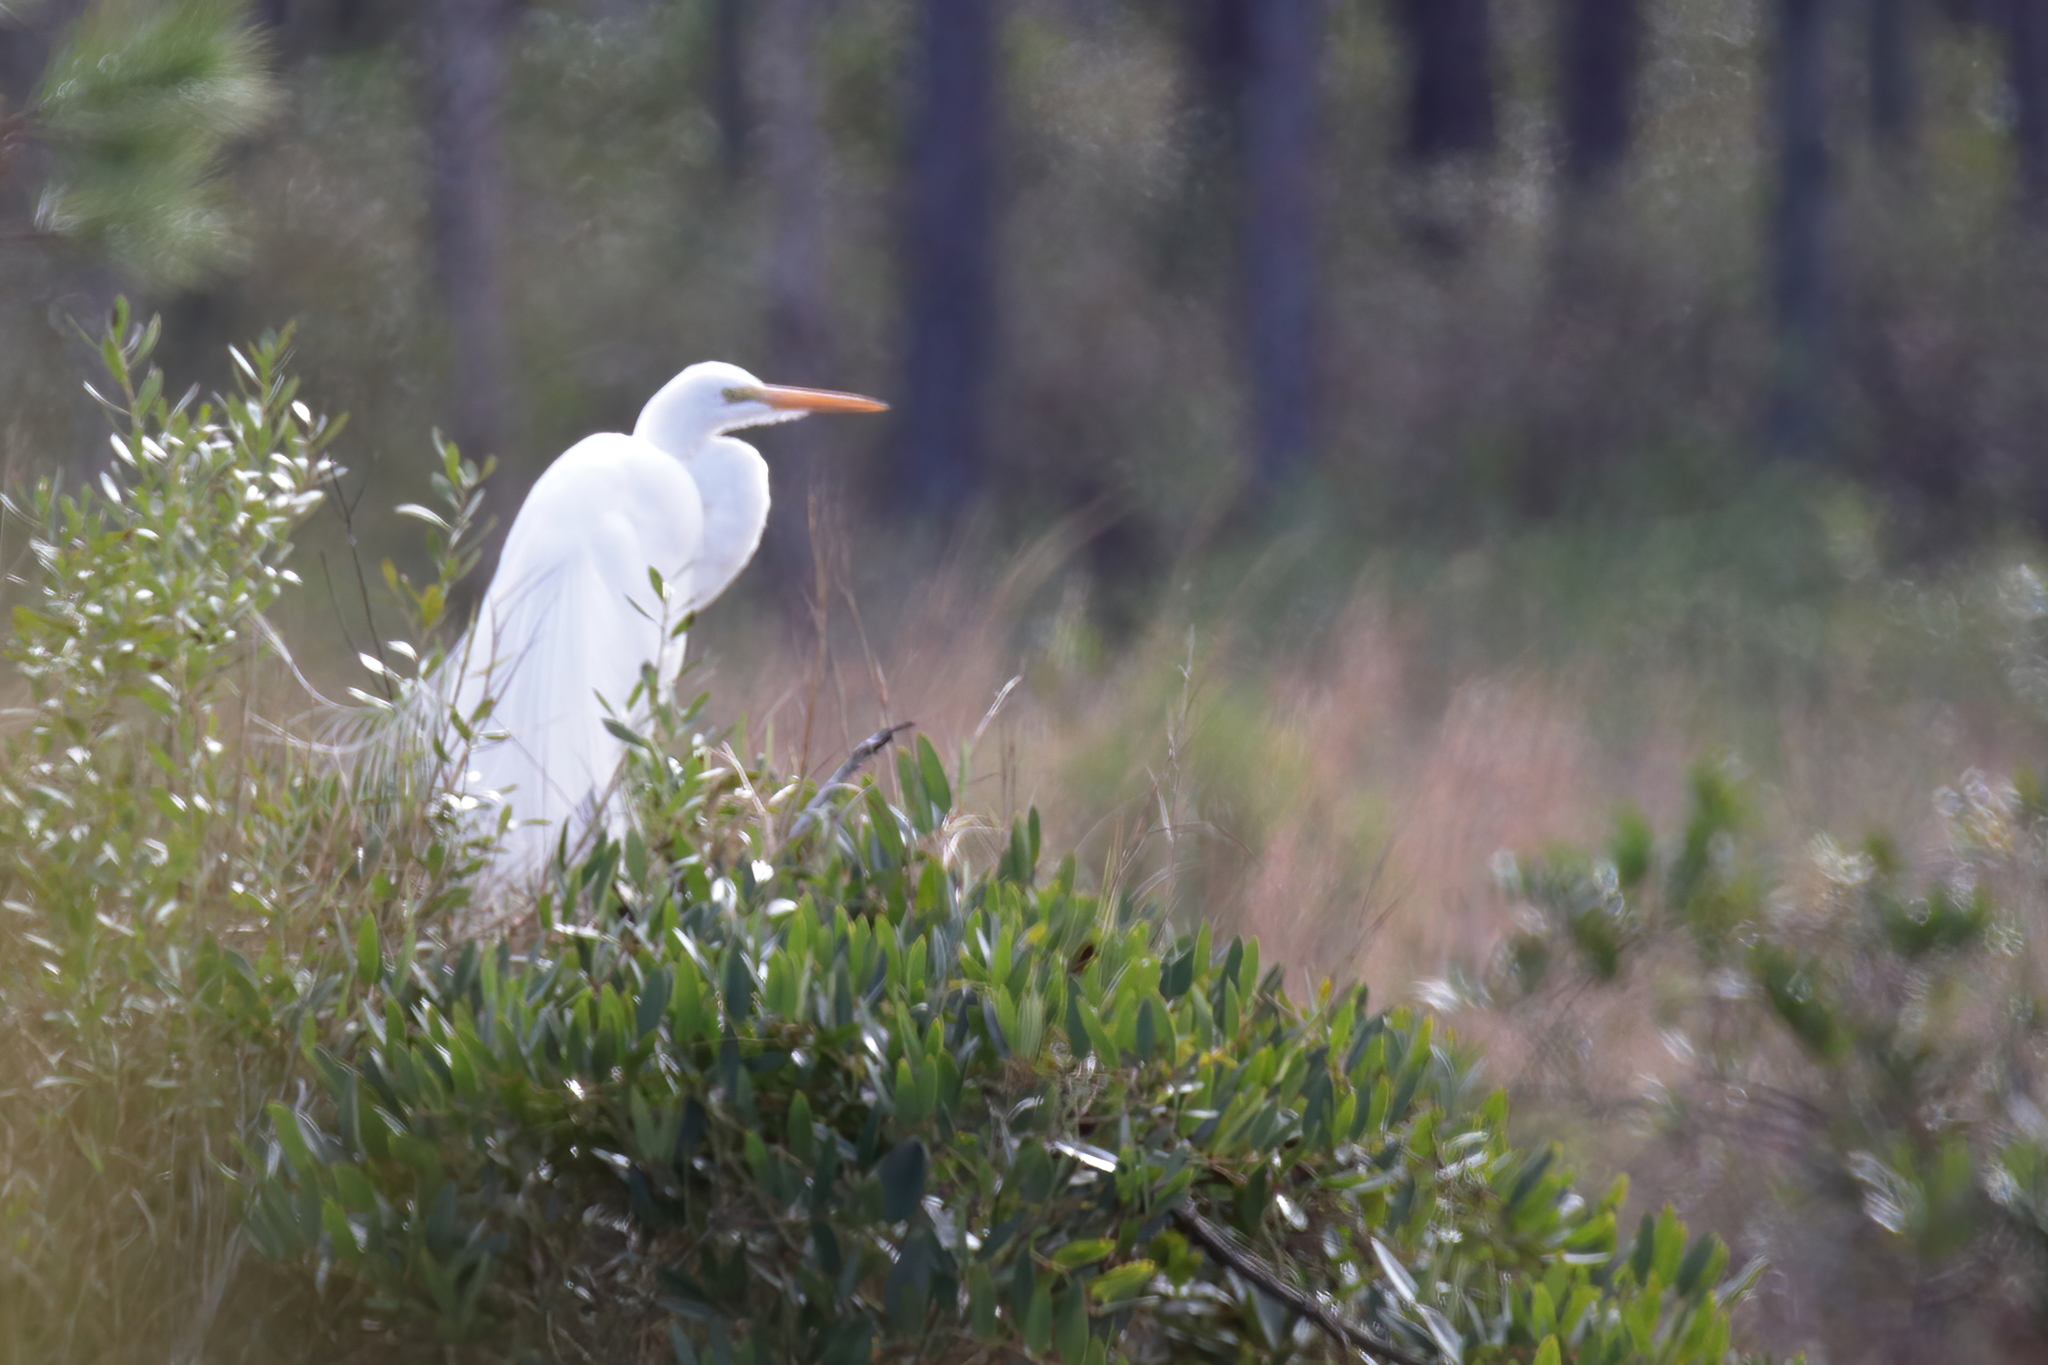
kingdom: Animalia
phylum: Chordata
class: Aves
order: Pelecaniformes
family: Ardeidae
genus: Ardea
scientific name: Ardea alba
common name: Great egret
